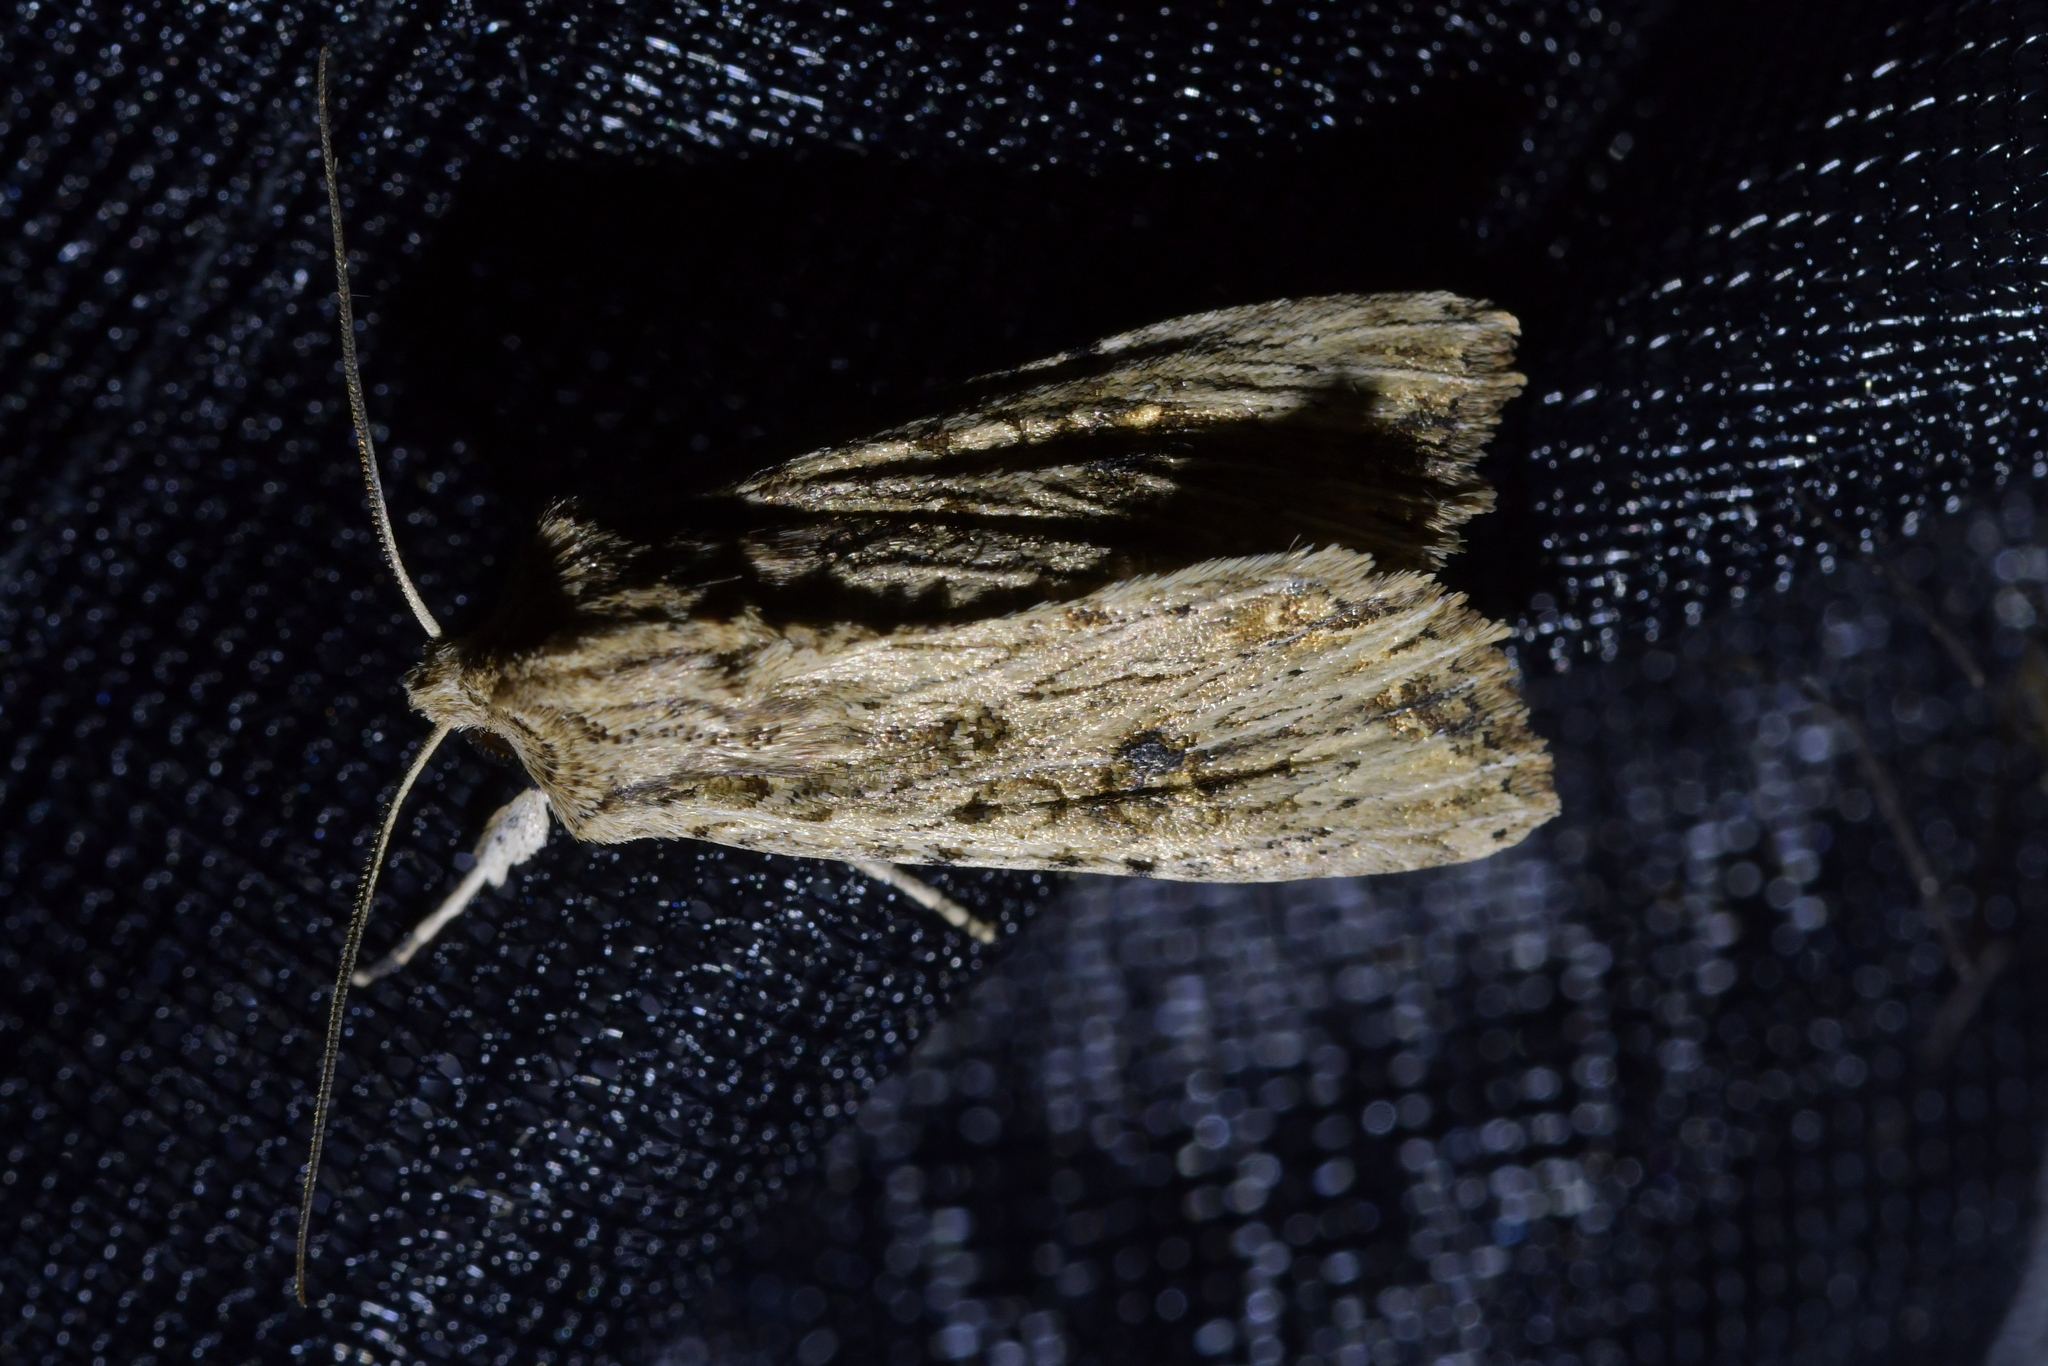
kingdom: Animalia
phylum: Arthropoda
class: Insecta
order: Lepidoptera
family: Noctuidae
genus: Ichneutica
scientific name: Ichneutica lignana
